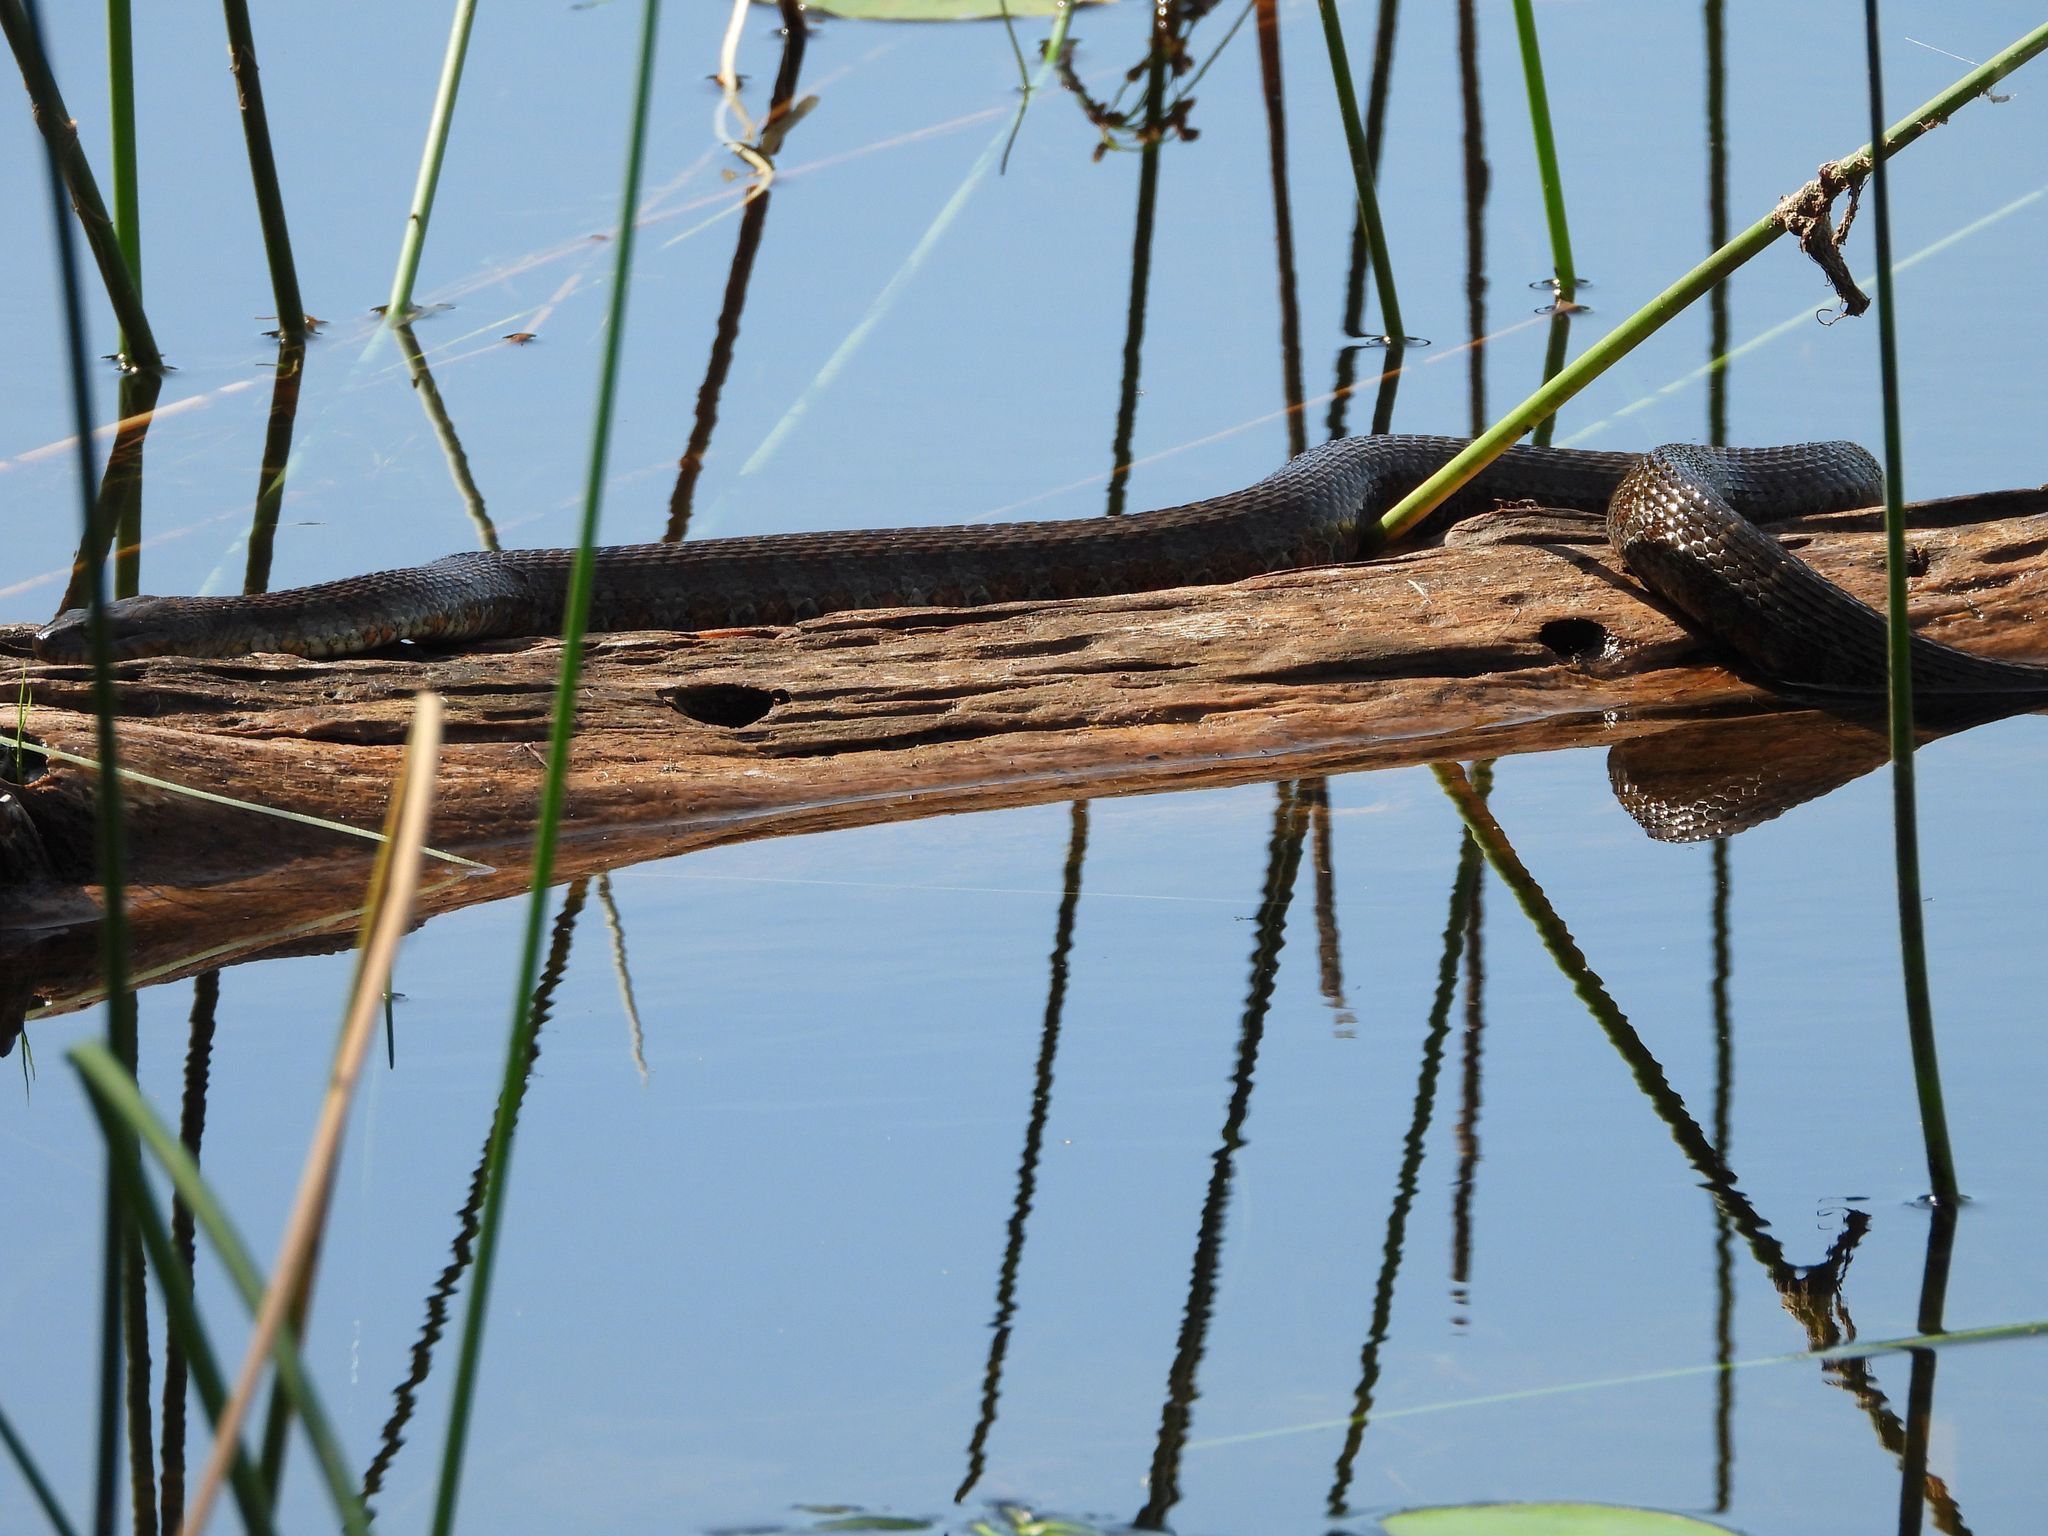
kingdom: Animalia
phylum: Chordata
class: Squamata
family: Colubridae
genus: Nerodia
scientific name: Nerodia sipedon
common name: Northern water snake
